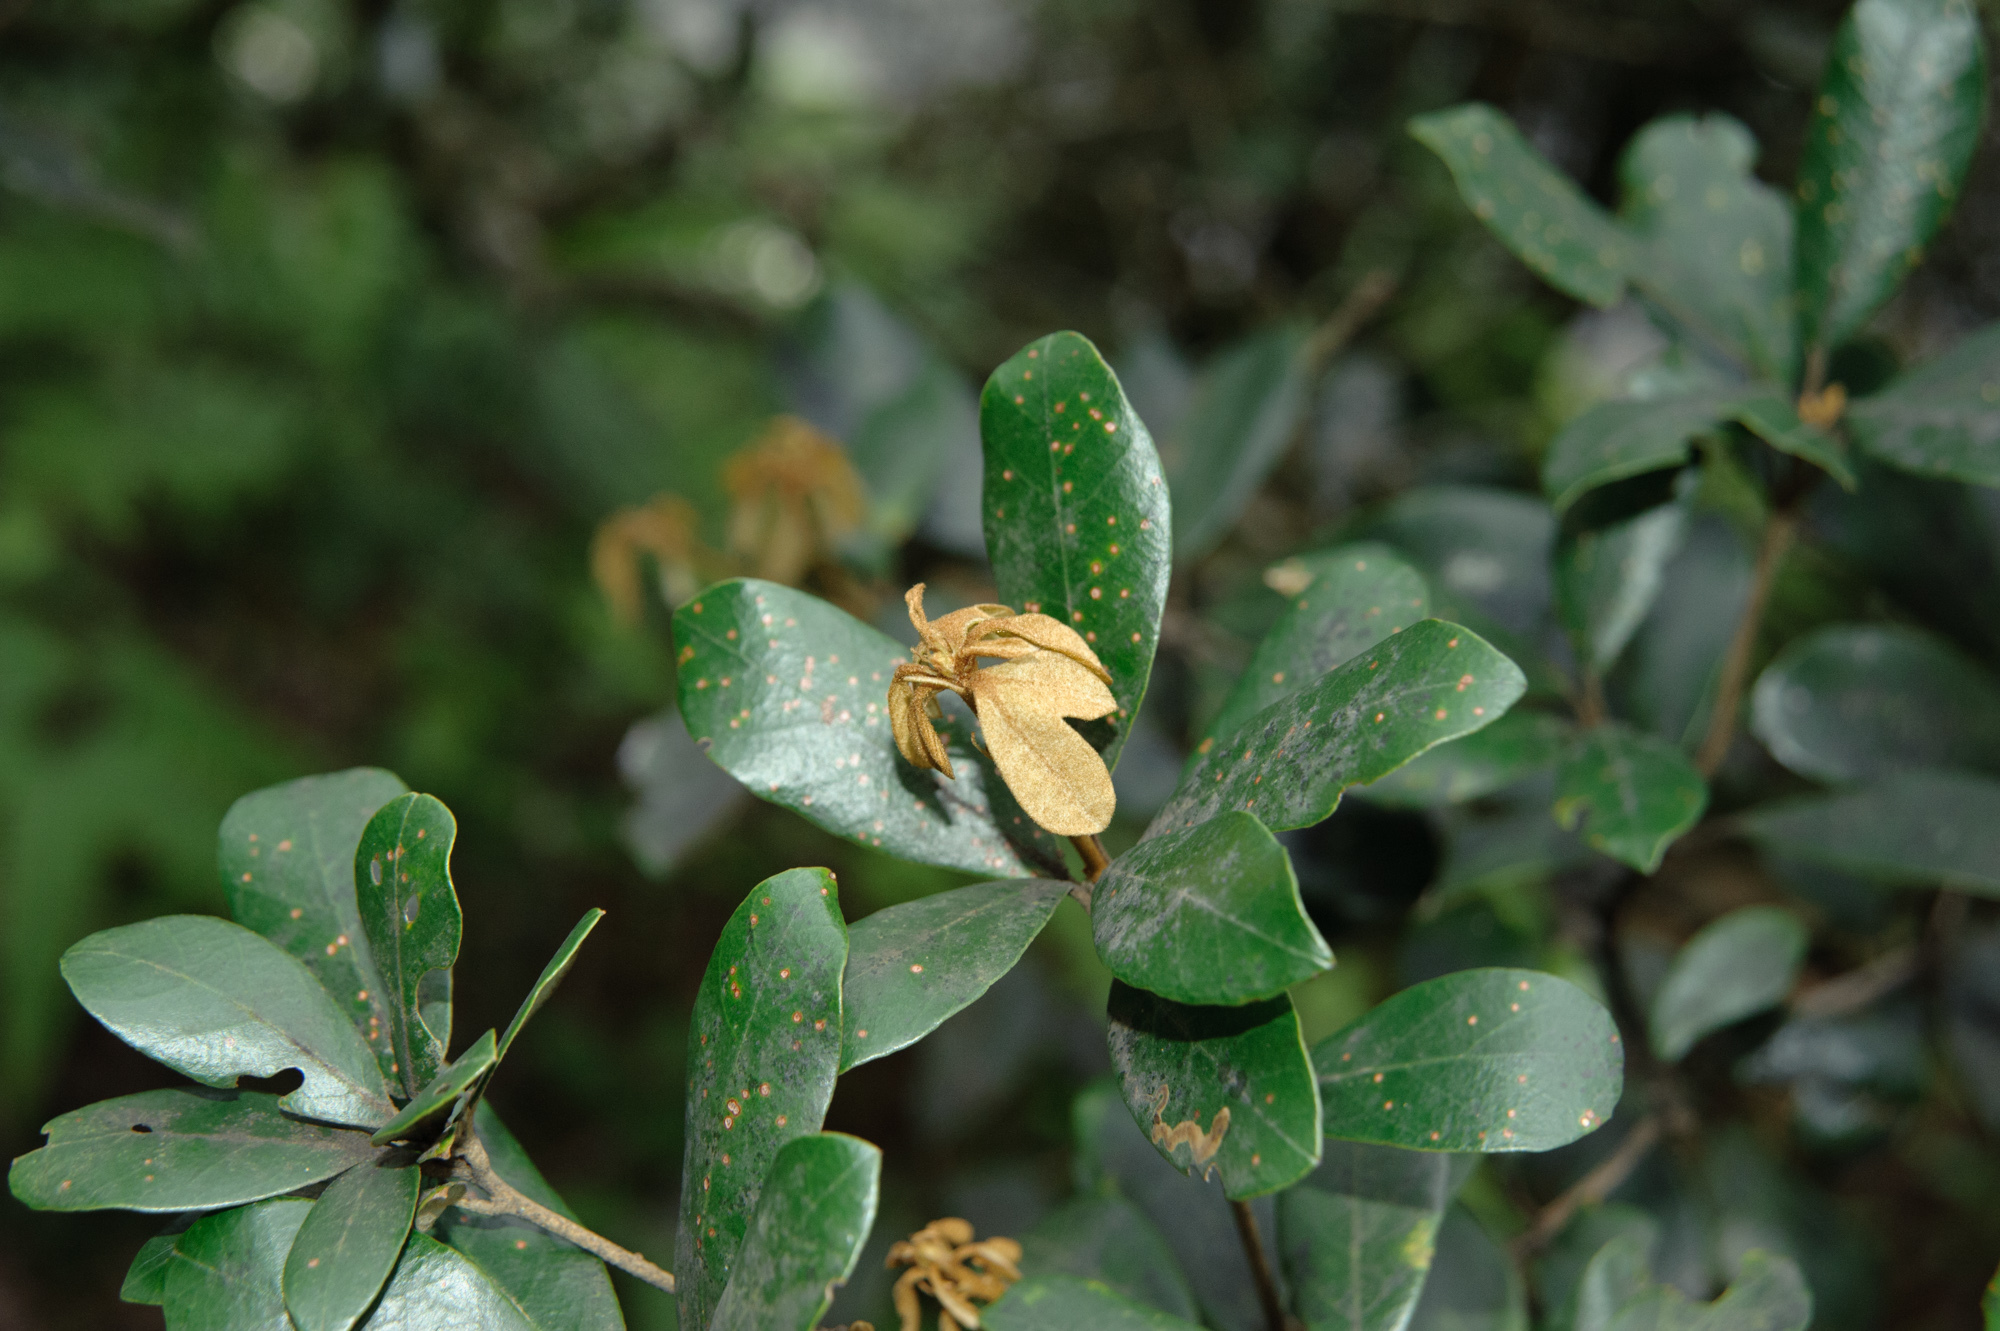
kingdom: Plantae
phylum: Tracheophyta
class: Magnoliopsida
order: Fagales
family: Fagaceae
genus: Quercus
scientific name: Quercus championii
